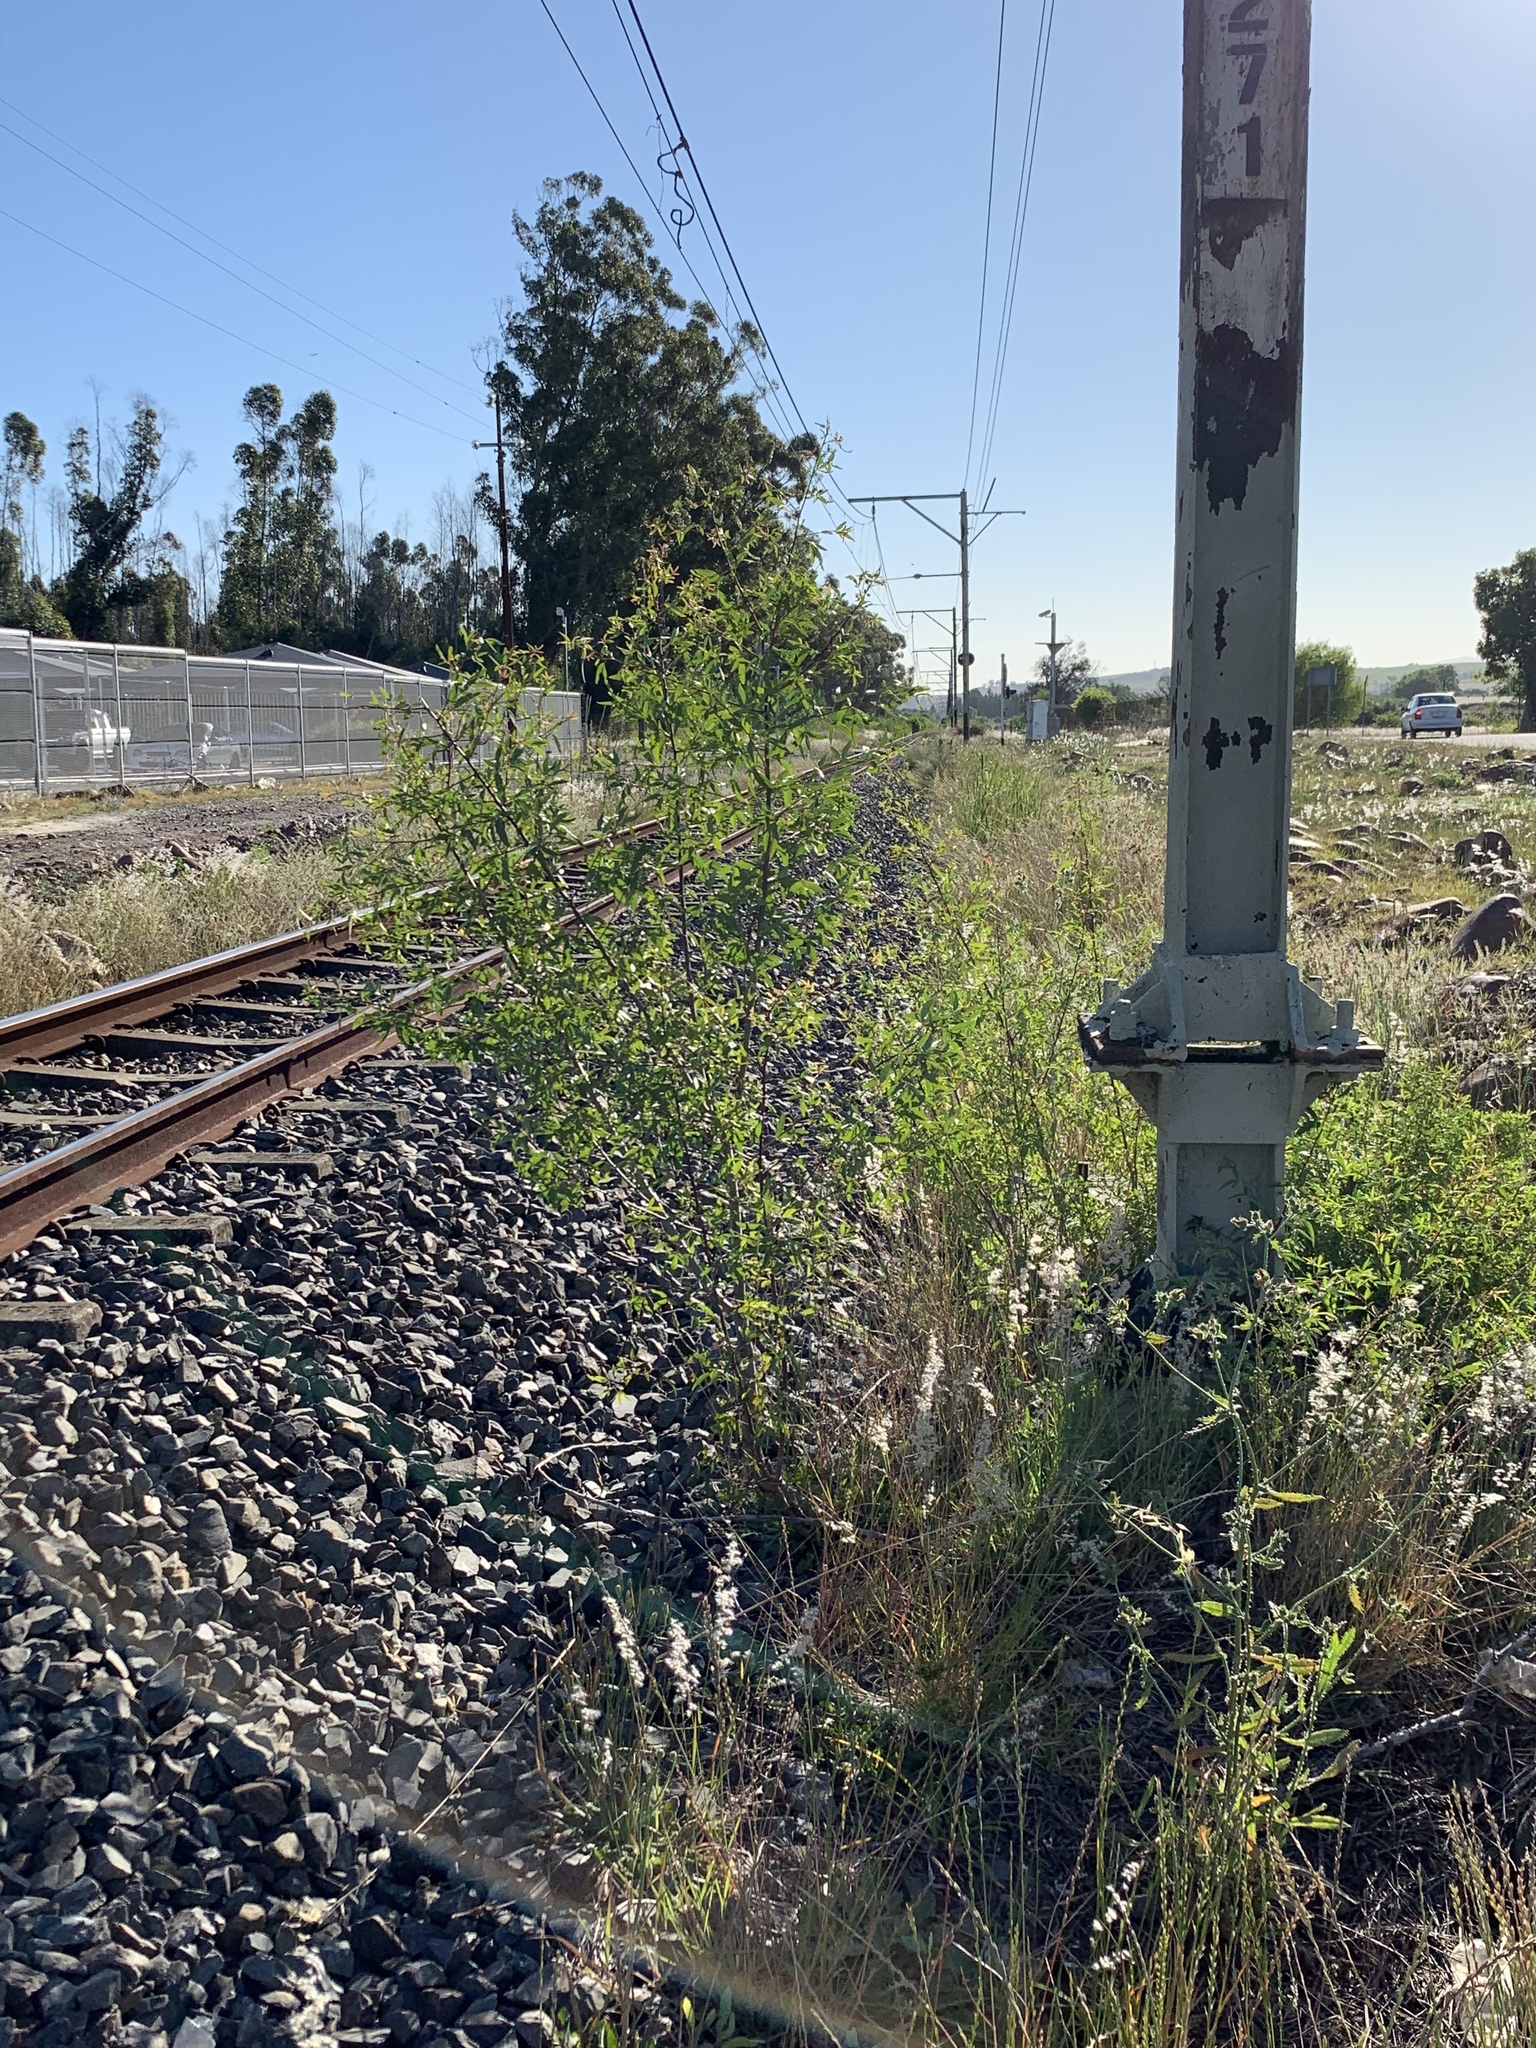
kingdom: Plantae
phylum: Tracheophyta
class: Magnoliopsida
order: Sapindales
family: Anacardiaceae
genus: Searsia
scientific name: Searsia pendulina
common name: White karee
